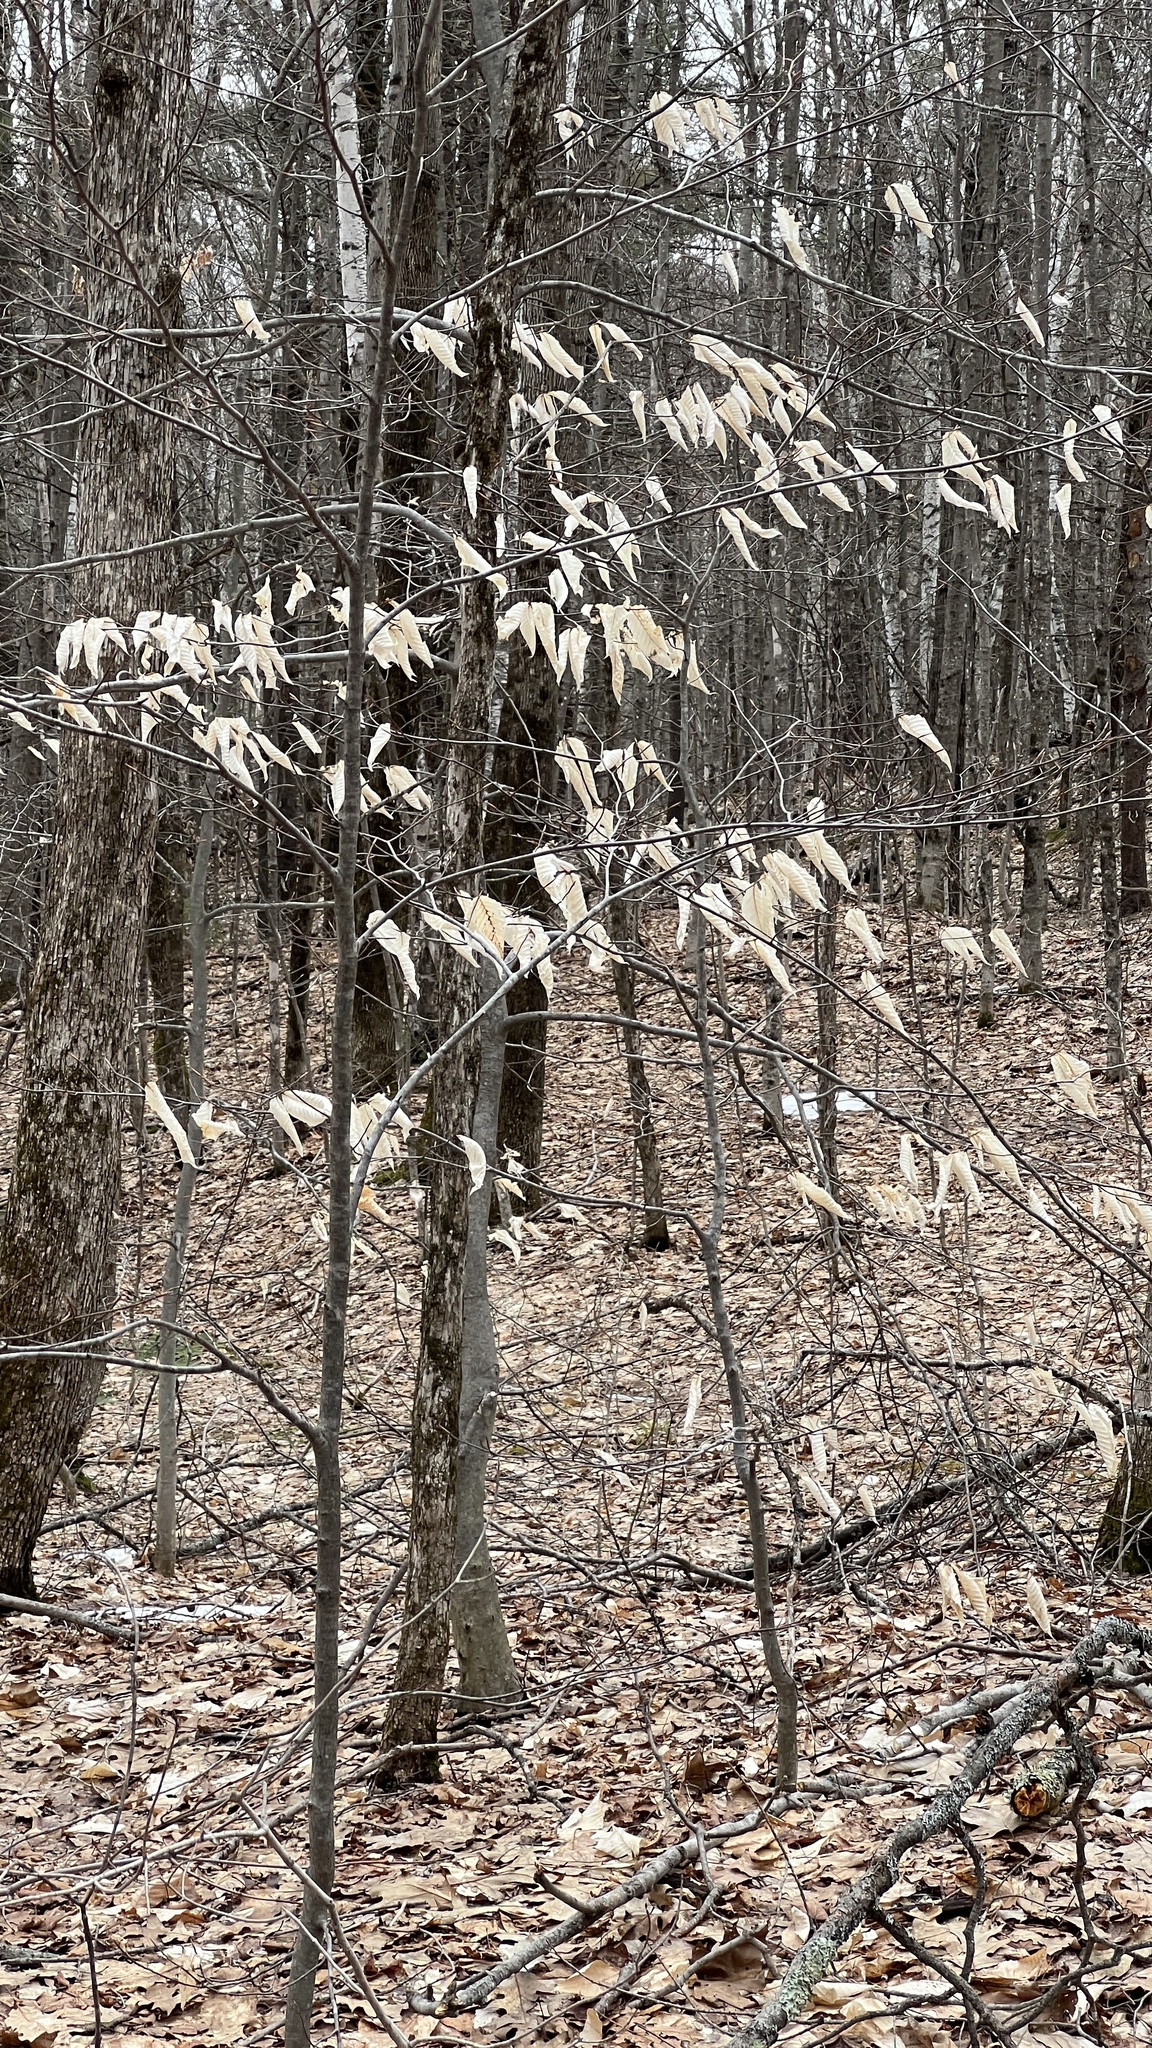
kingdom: Plantae
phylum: Tracheophyta
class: Magnoliopsida
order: Fagales
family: Fagaceae
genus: Fagus
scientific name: Fagus grandifolia
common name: American beech
